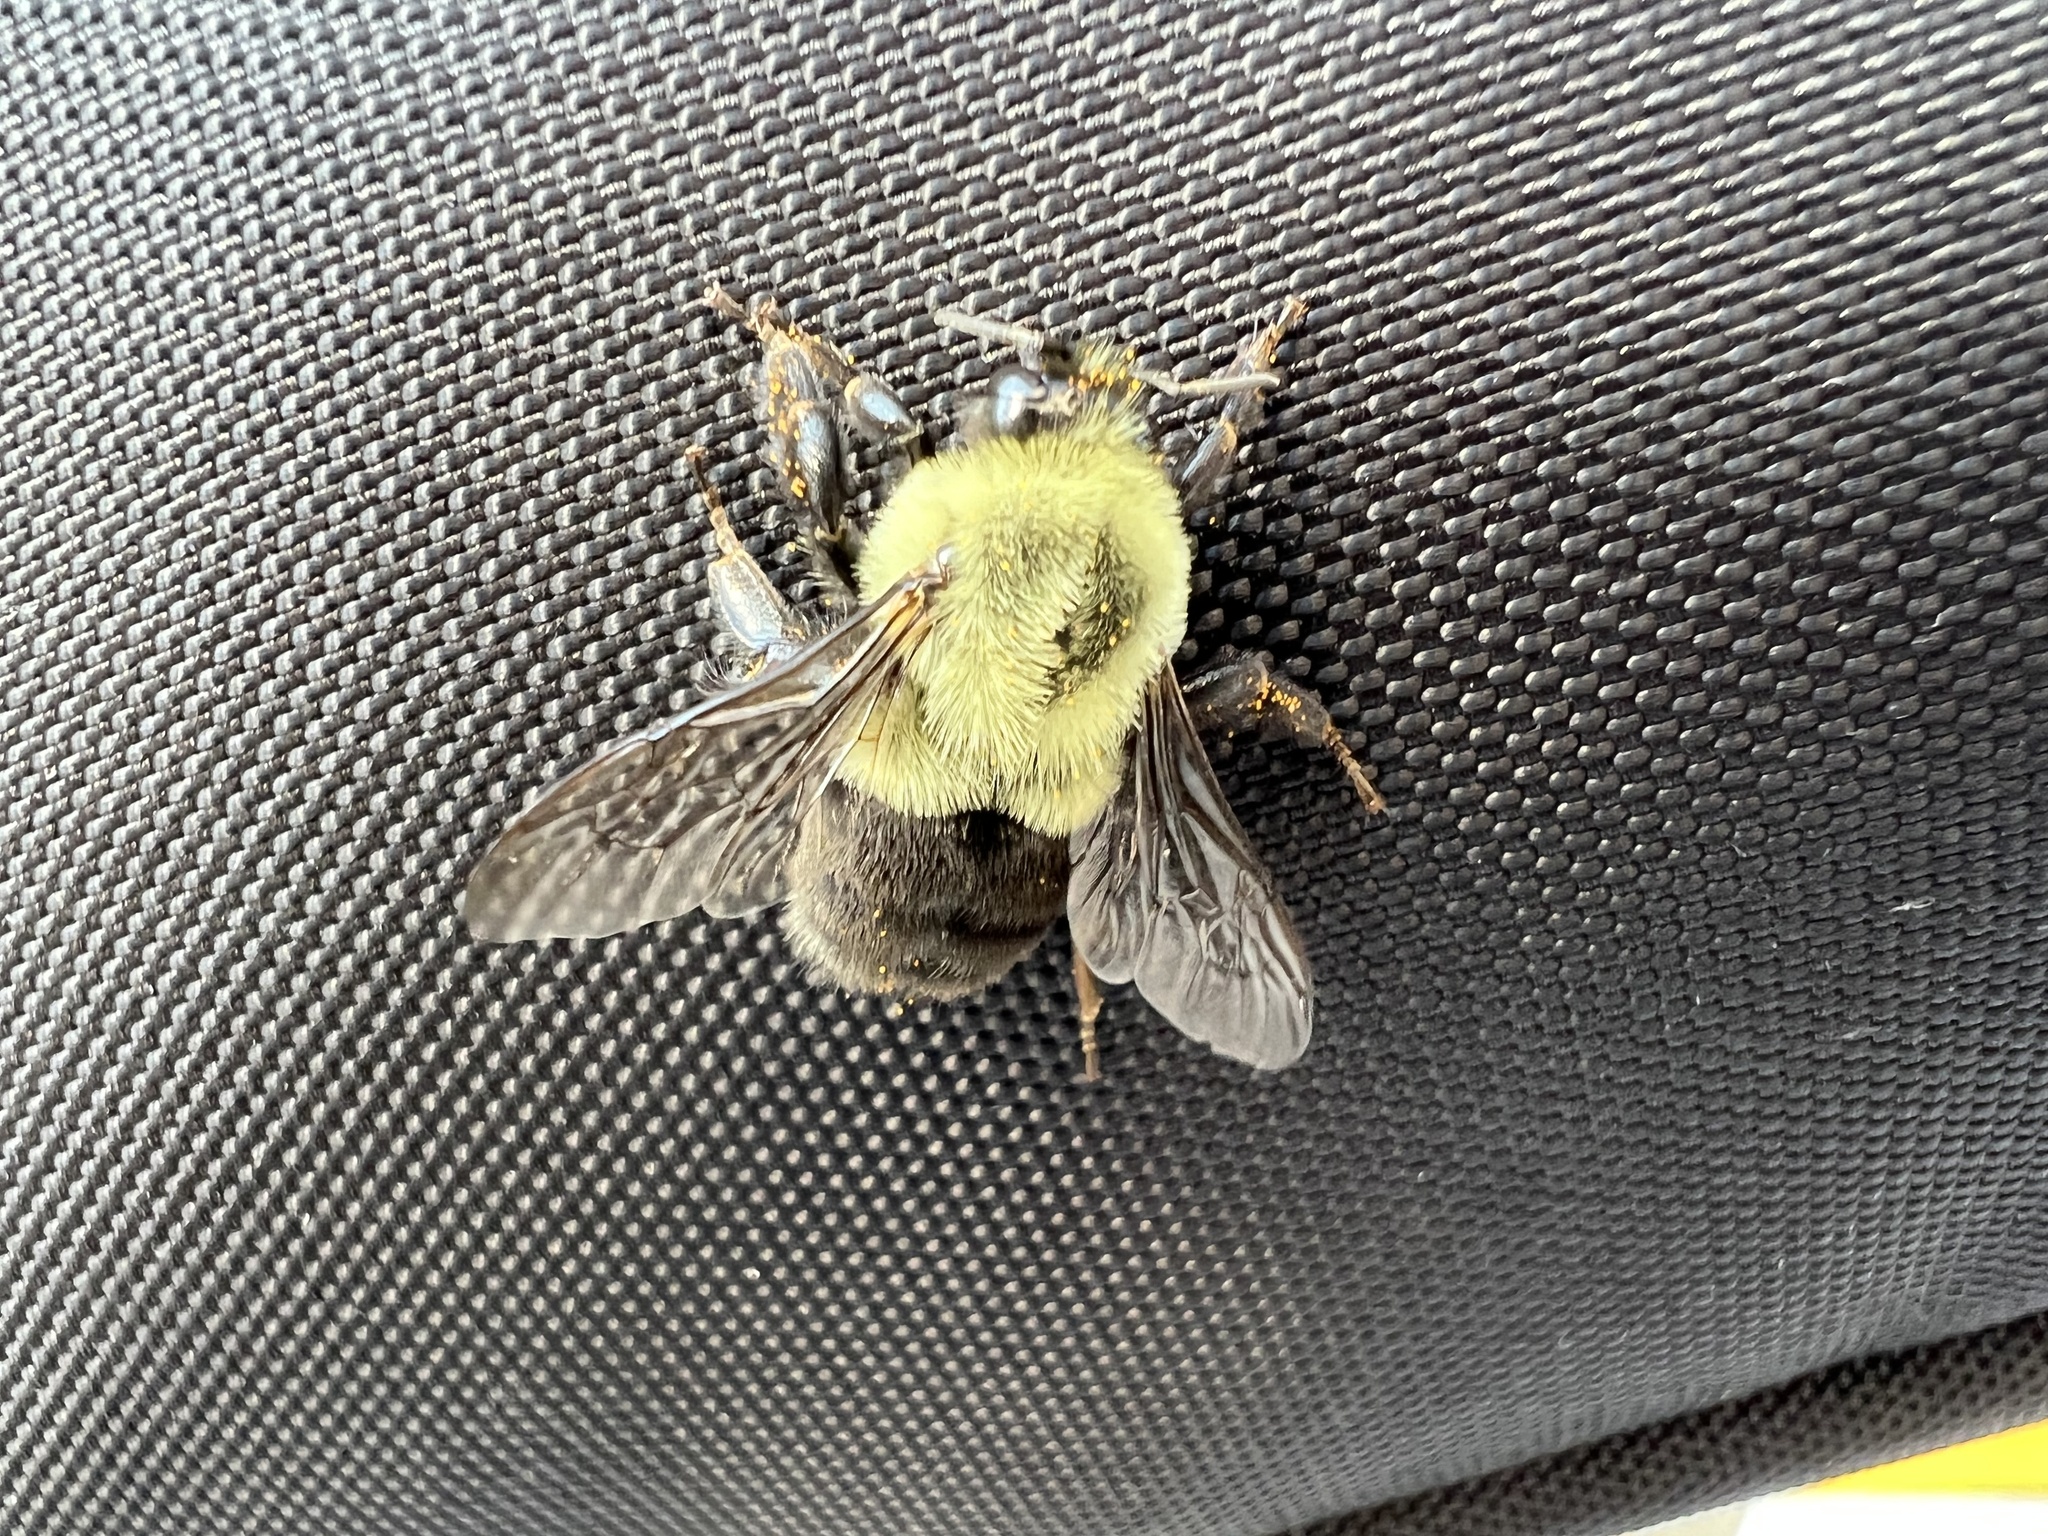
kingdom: Animalia
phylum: Arthropoda
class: Insecta
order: Hymenoptera
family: Apidae
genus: Bombus
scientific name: Bombus impatiens
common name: Common eastern bumble bee
